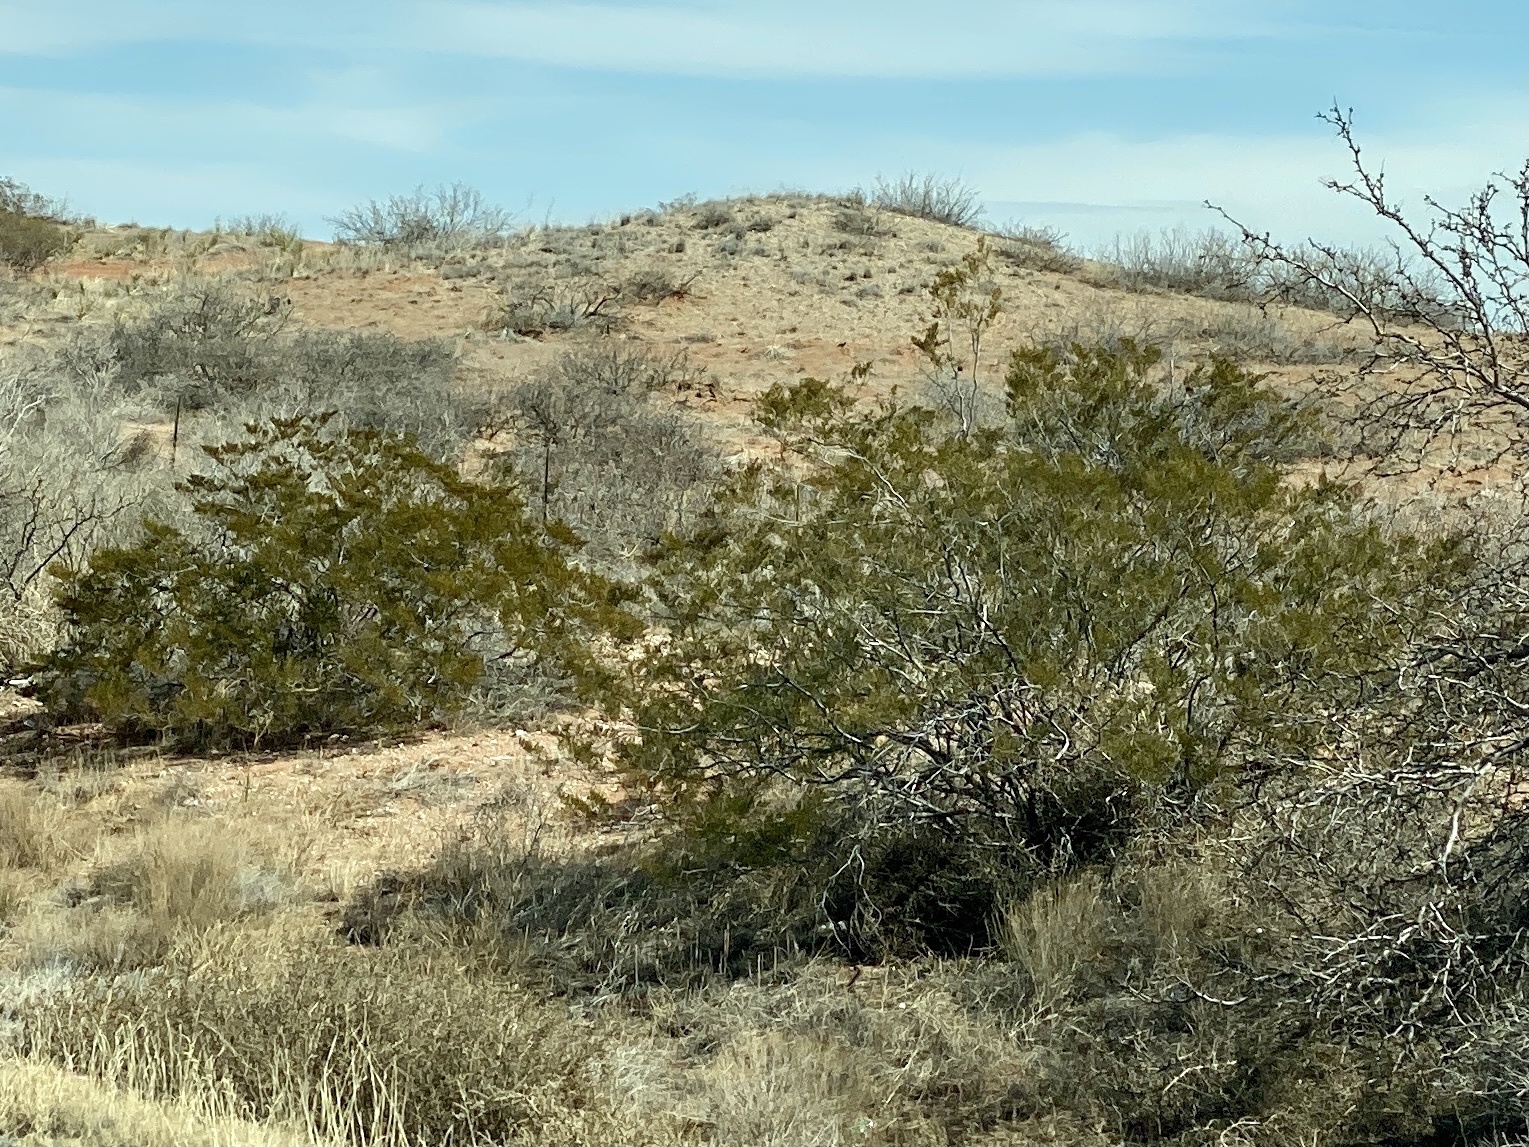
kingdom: Plantae
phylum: Tracheophyta
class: Magnoliopsida
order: Zygophyllales
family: Zygophyllaceae
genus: Larrea
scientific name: Larrea tridentata
